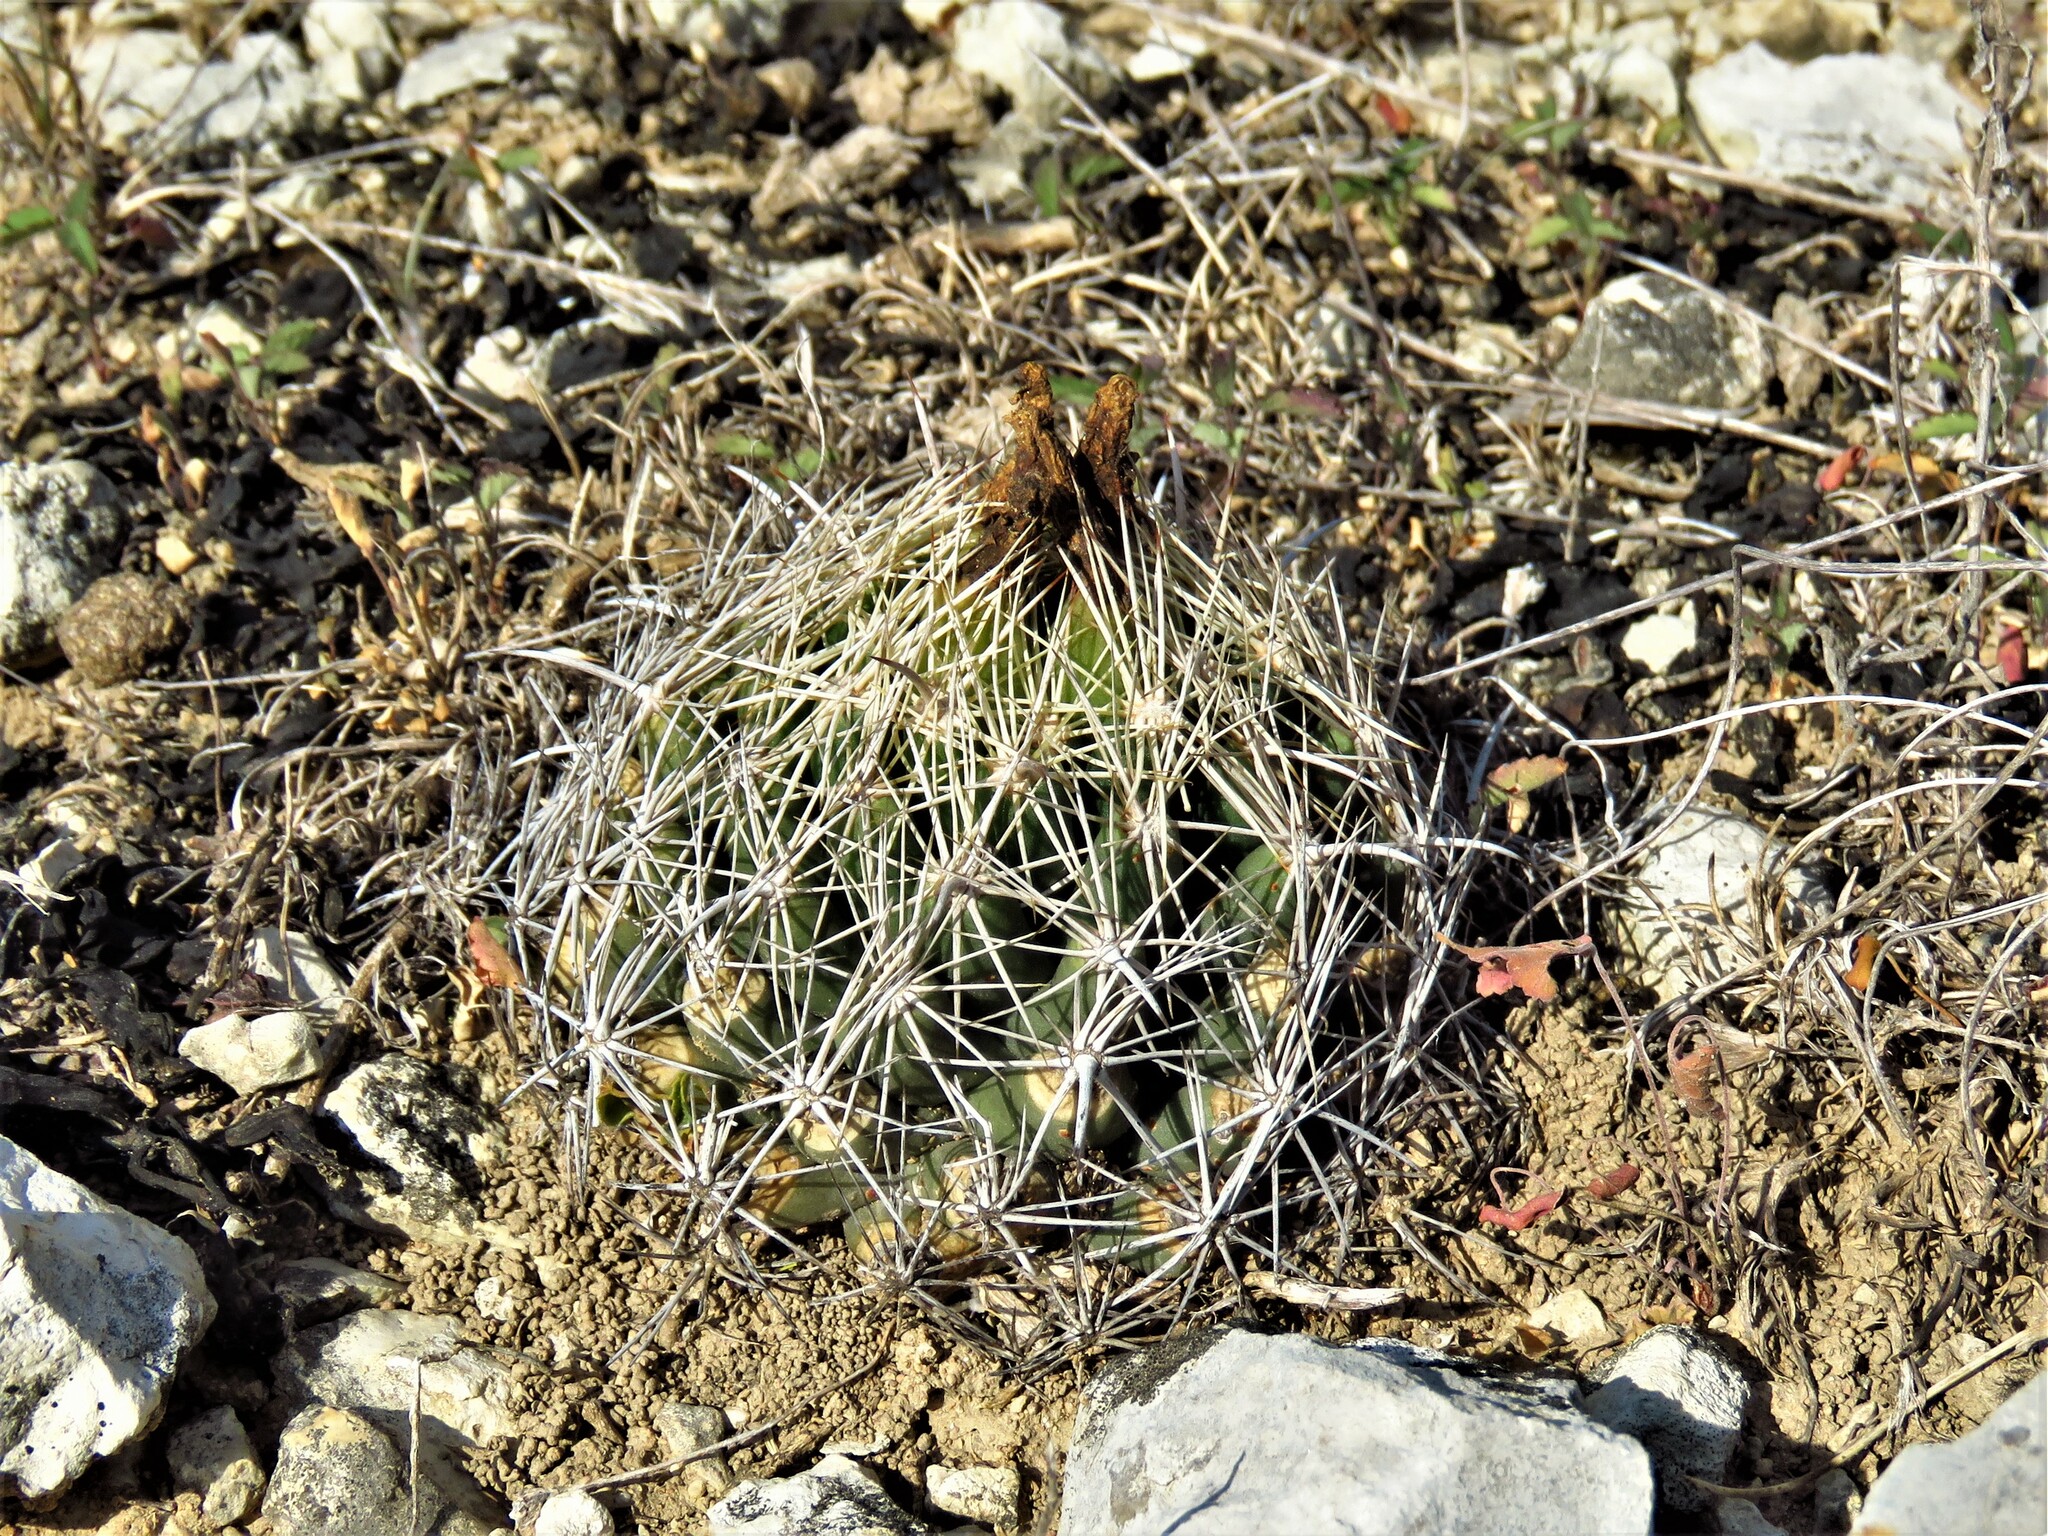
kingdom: Plantae
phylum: Tracheophyta
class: Magnoliopsida
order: Caryophyllales
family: Cactaceae
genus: Coryphantha
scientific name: Coryphantha sulcata
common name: Finger cactus
